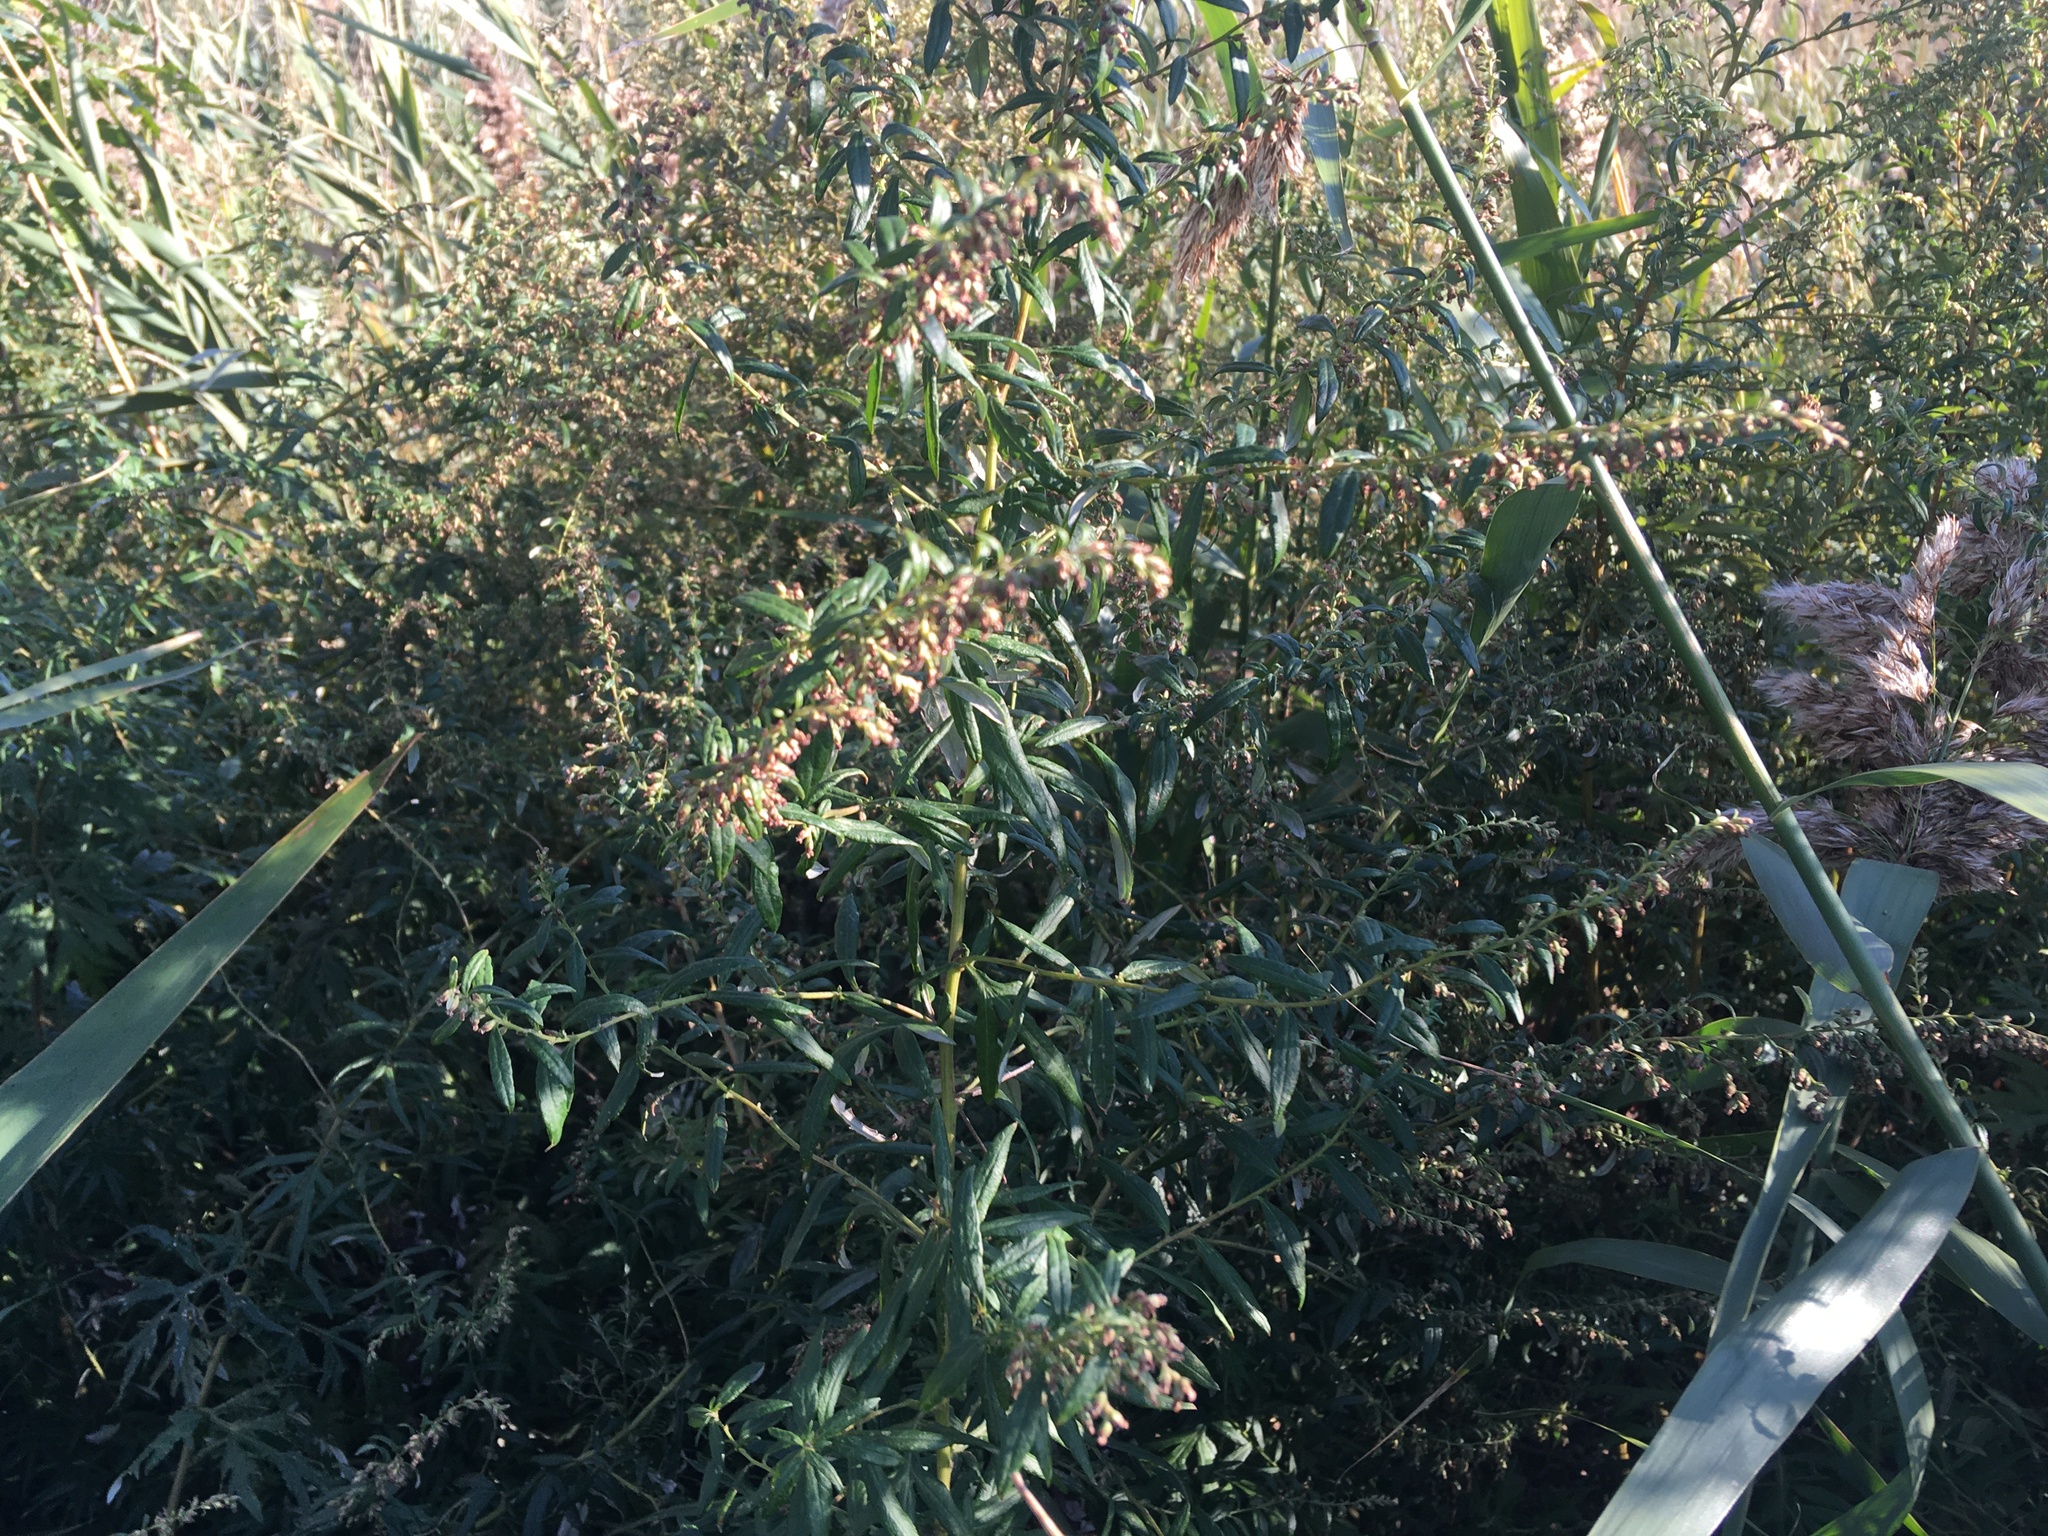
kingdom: Plantae
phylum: Tracheophyta
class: Magnoliopsida
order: Asterales
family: Asteraceae
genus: Artemisia
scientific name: Artemisia vulgaris
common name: Mugwort
